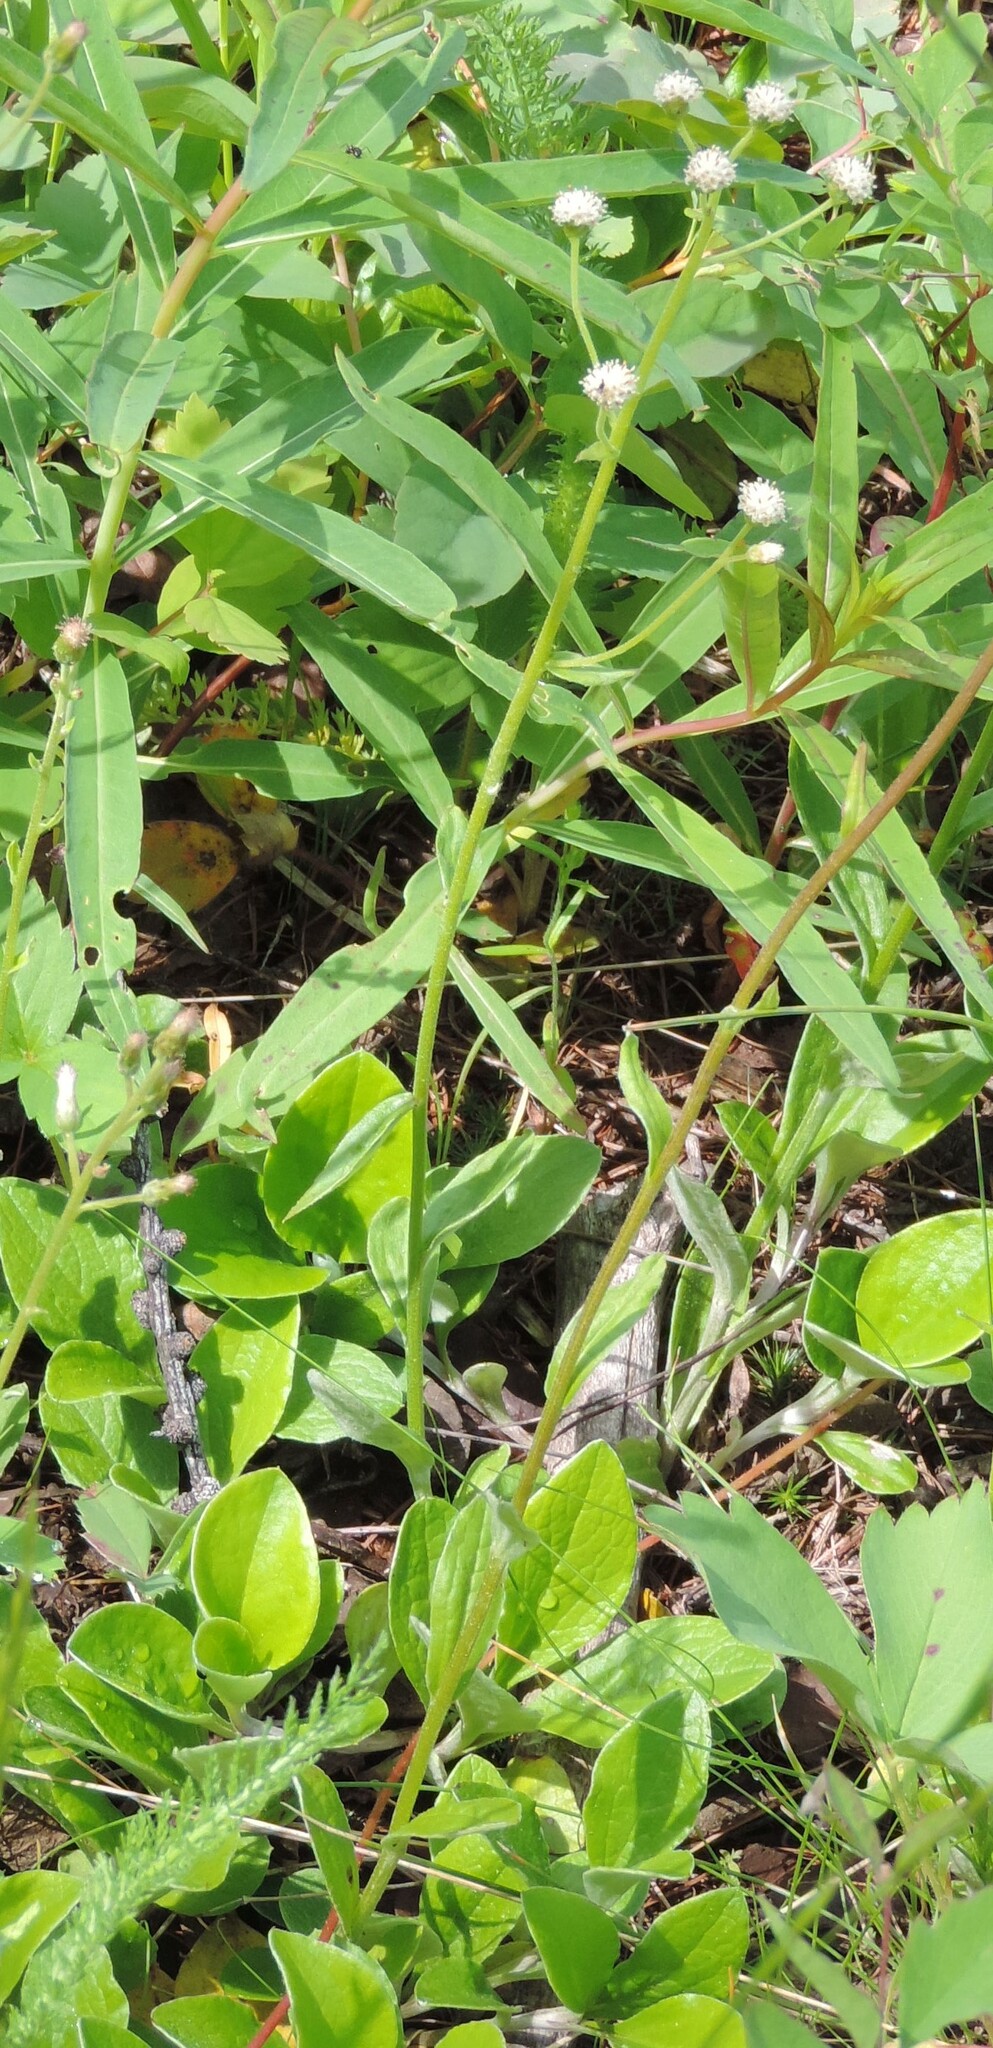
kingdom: Plantae
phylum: Tracheophyta
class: Magnoliopsida
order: Asterales
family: Asteraceae
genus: Antennaria
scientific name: Antennaria racemosa
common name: Racemose pussytoes
